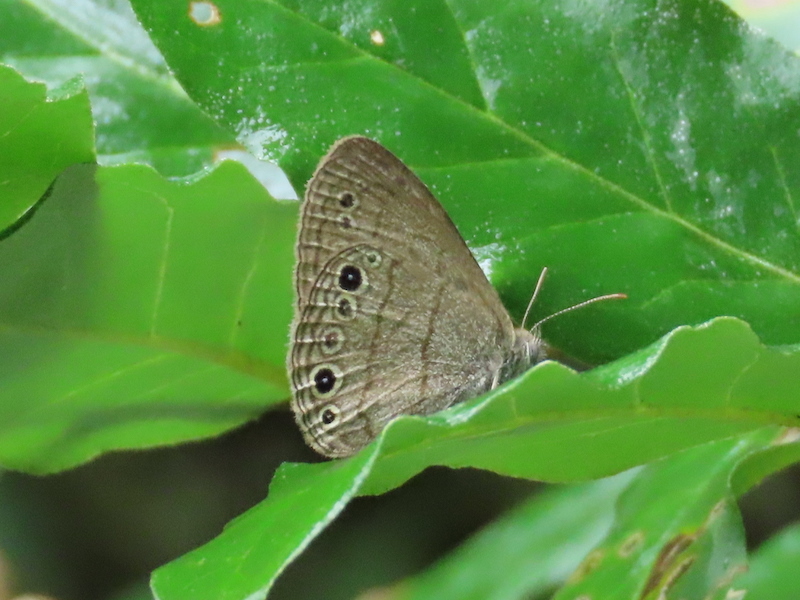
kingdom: Animalia
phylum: Arthropoda
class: Insecta
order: Lepidoptera
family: Nymphalidae
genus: Hermeuptychia
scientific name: Hermeuptychia hermes
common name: Hermes satyr
